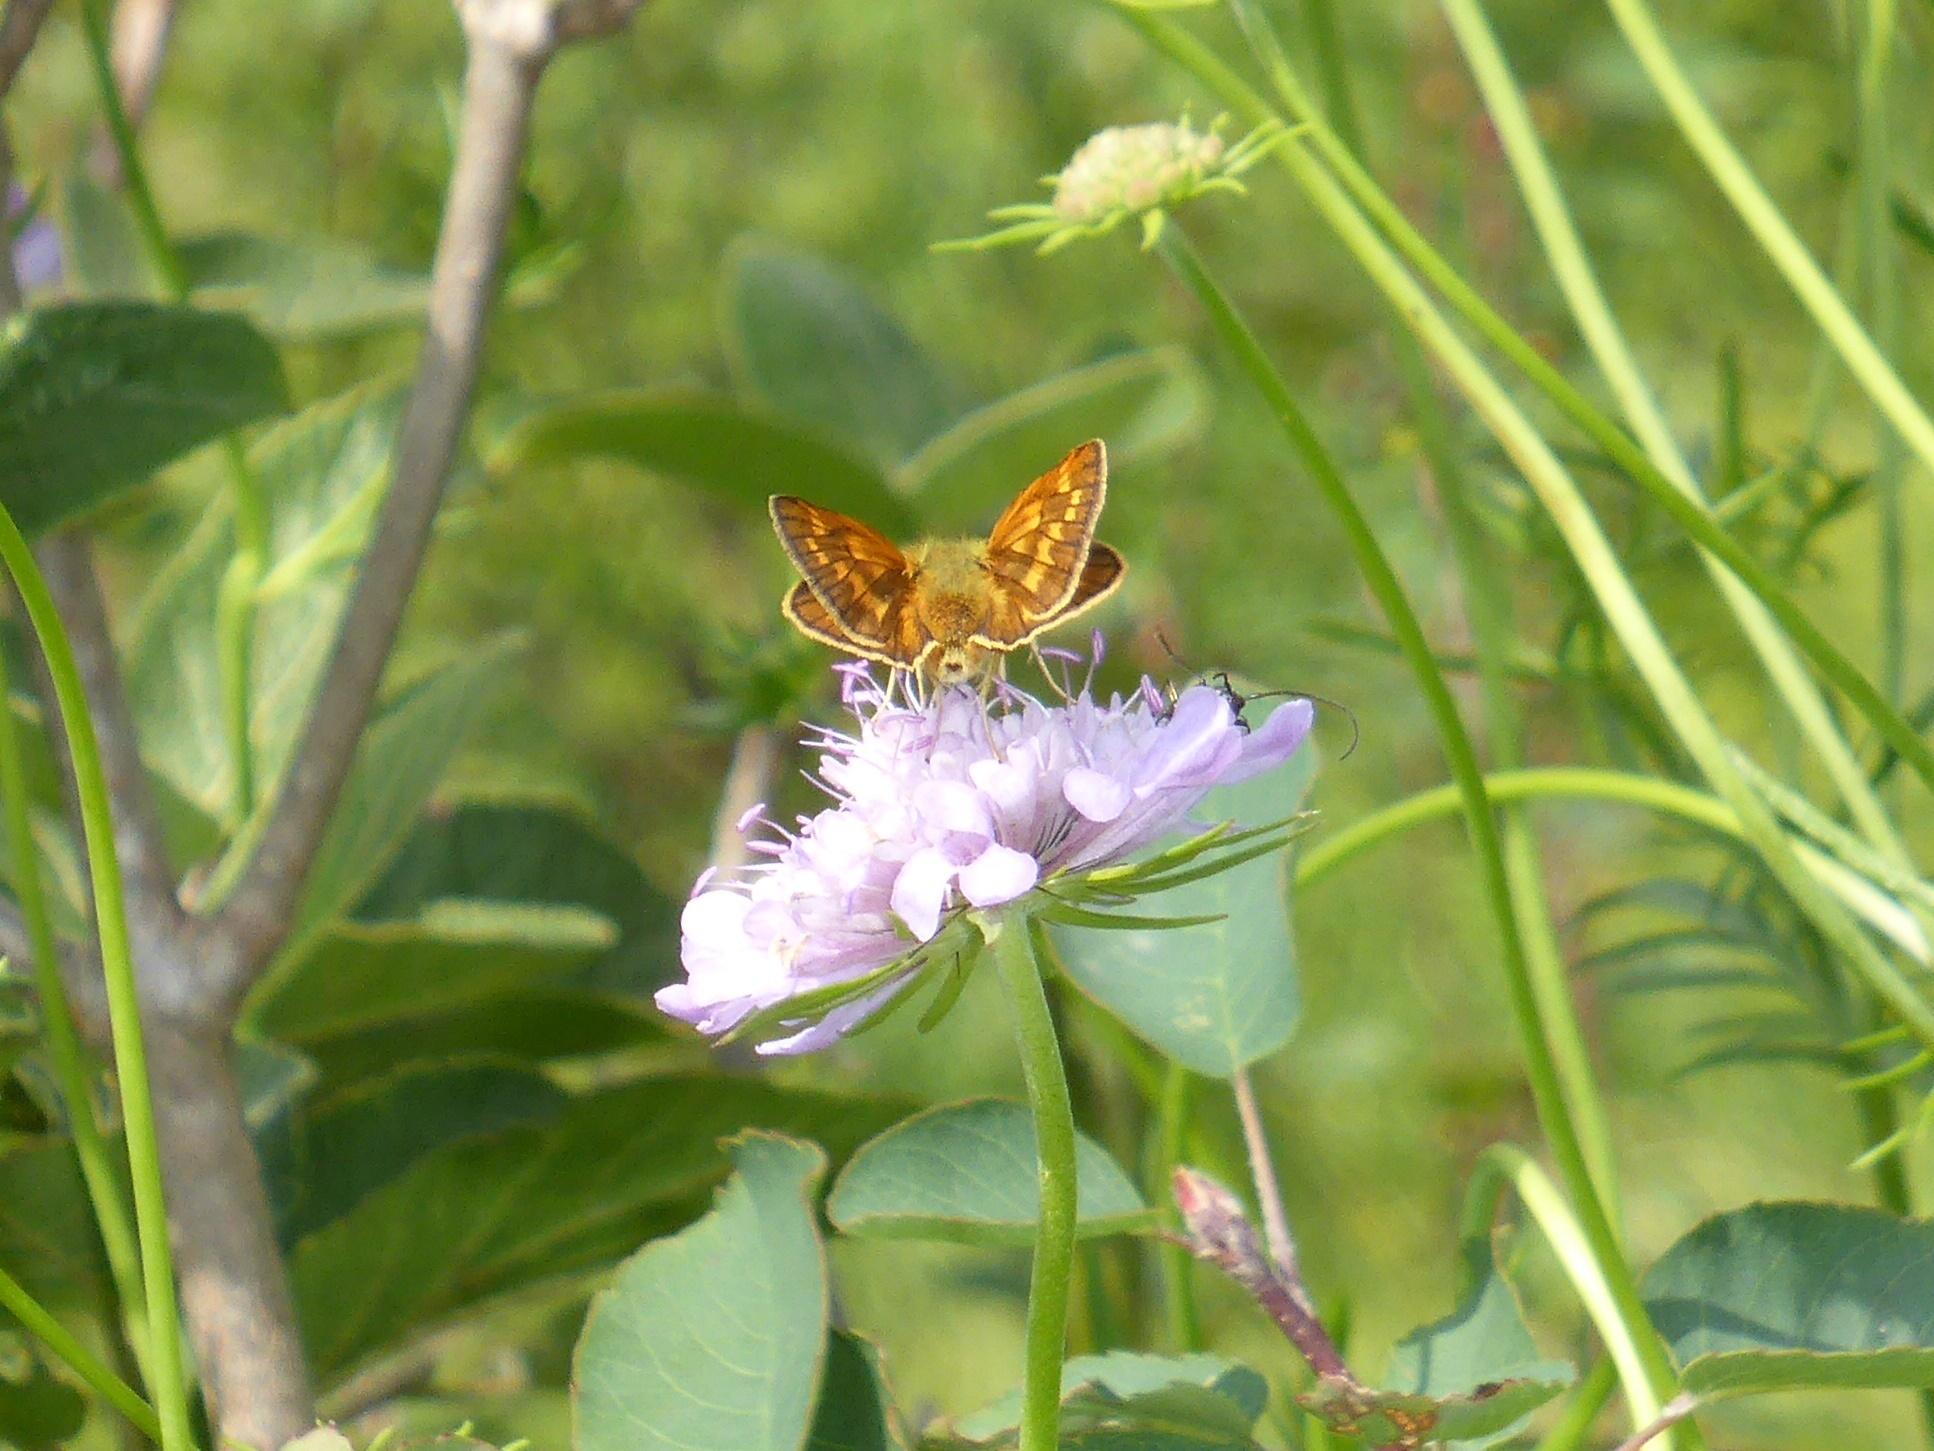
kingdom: Animalia
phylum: Arthropoda
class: Insecta
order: Lepidoptera
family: Hesperiidae
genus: Ochlodes
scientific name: Ochlodes venata
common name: Large skipper
